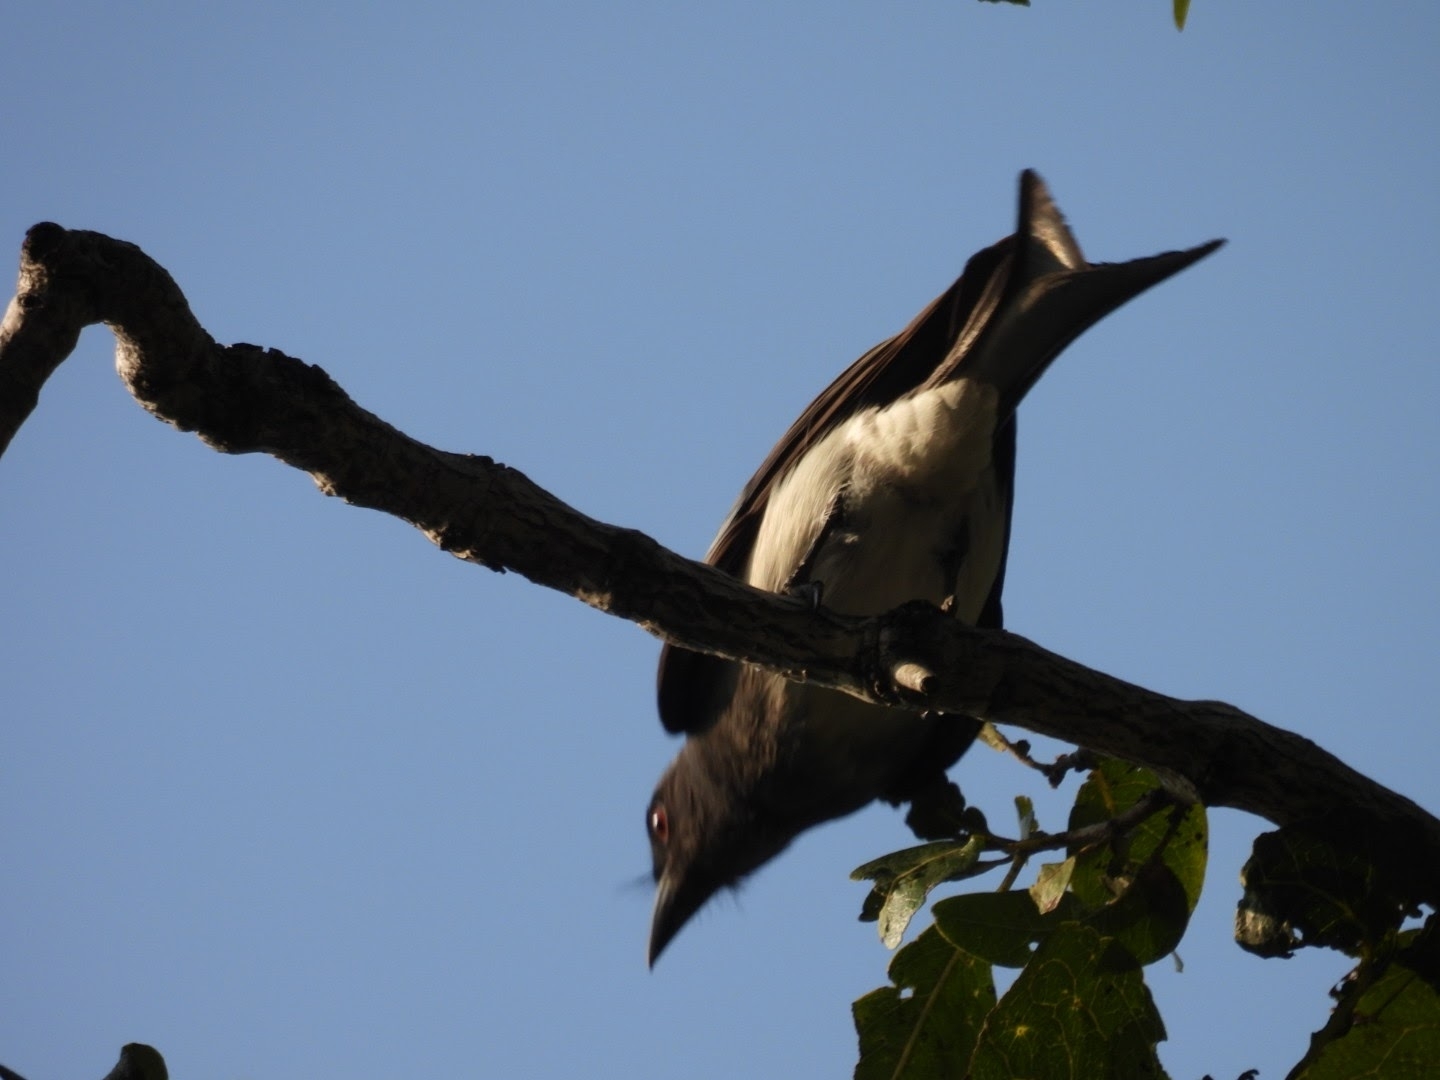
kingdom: Animalia
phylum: Chordata
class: Aves
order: Passeriformes
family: Dicruridae
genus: Dicrurus
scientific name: Dicrurus caerulescens
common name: White-bellied drongo
